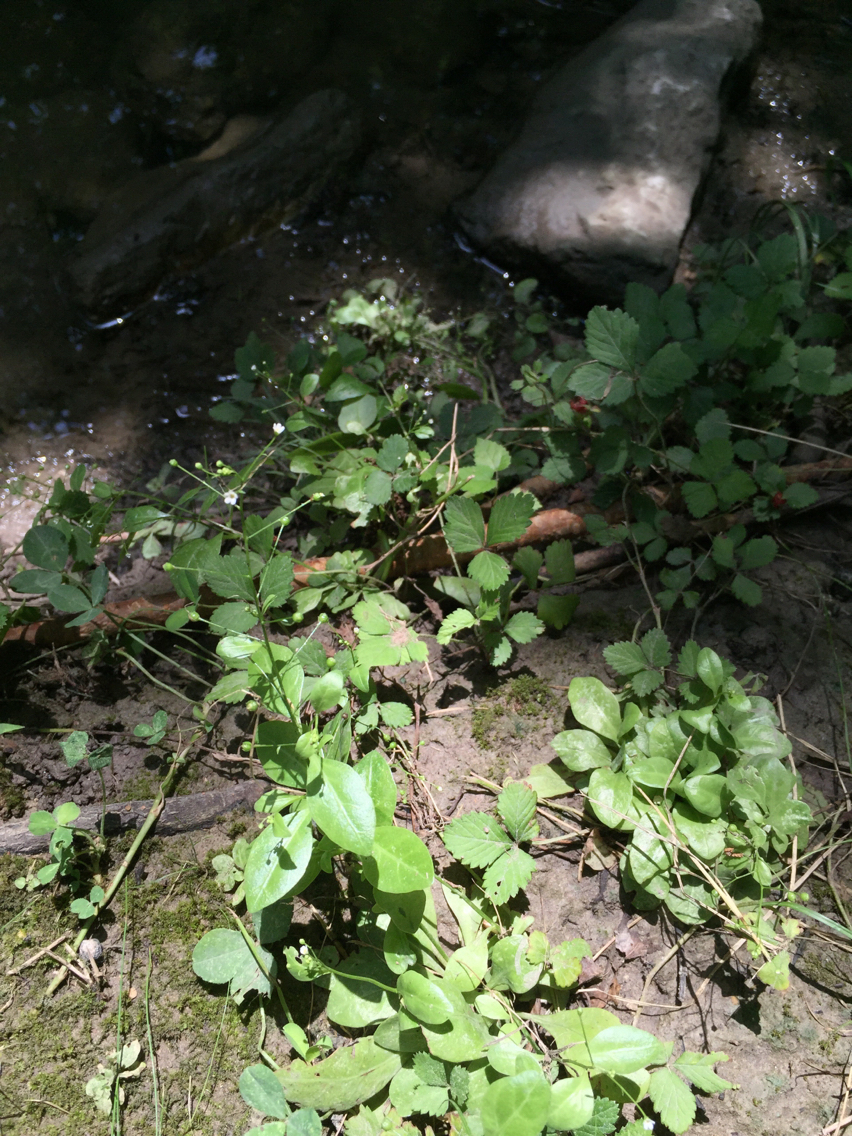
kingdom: Plantae
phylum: Tracheophyta
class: Magnoliopsida
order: Ericales
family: Primulaceae
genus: Samolus
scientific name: Samolus ebracteatus
